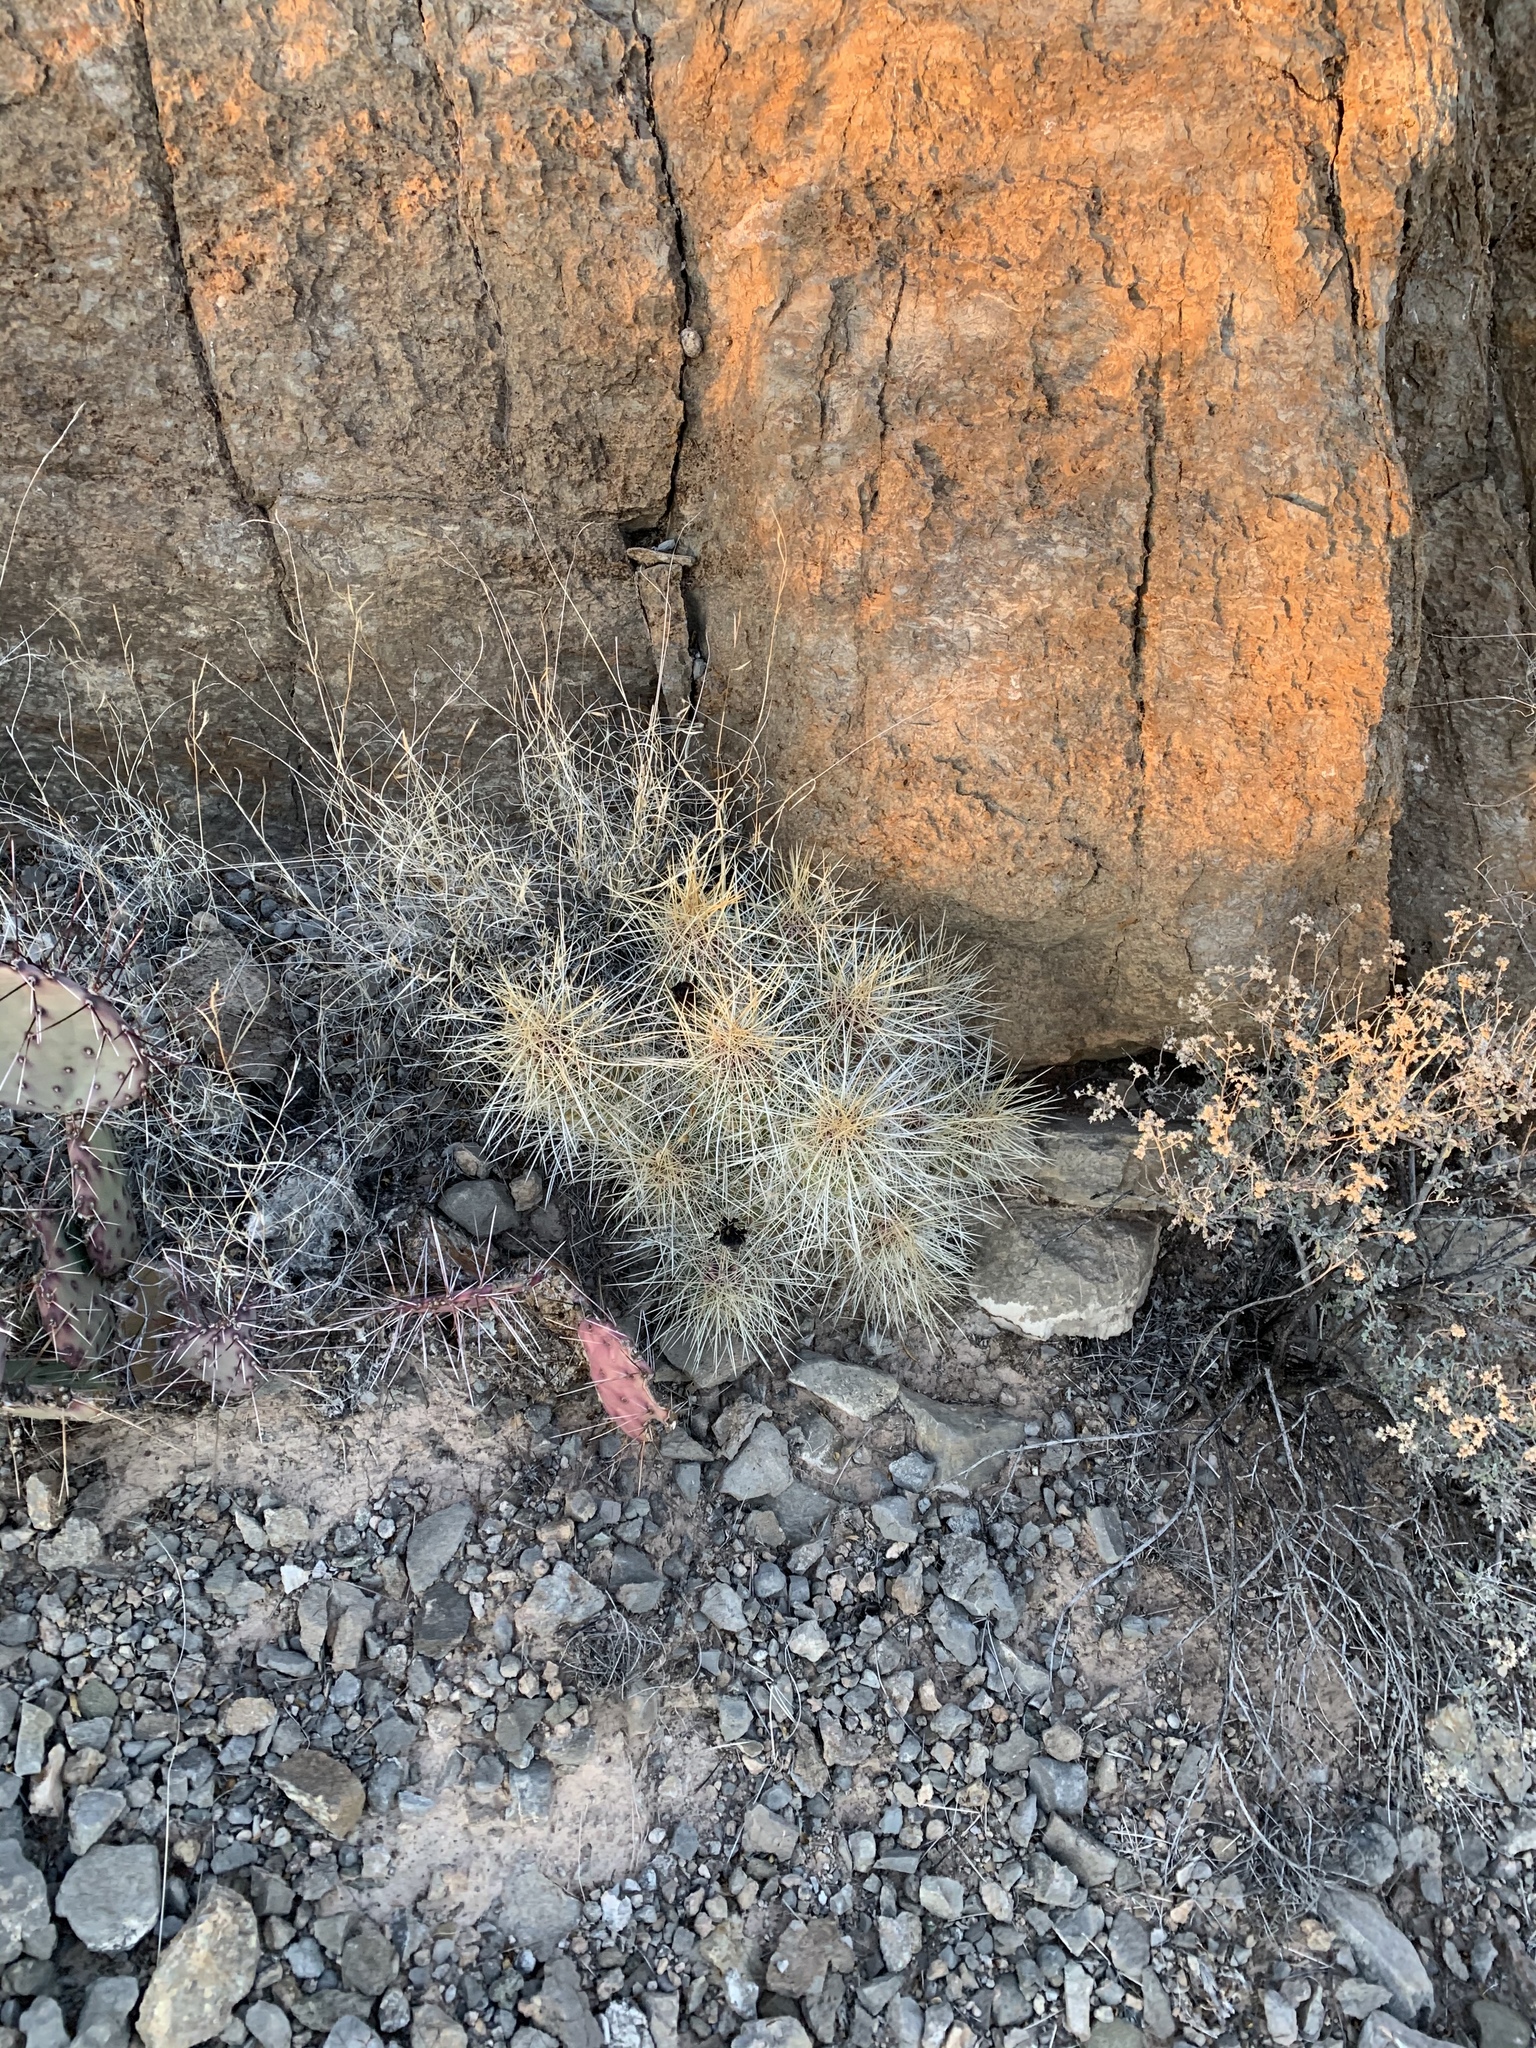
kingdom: Plantae
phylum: Tracheophyta
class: Magnoliopsida
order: Caryophyllales
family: Cactaceae
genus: Echinocereus
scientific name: Echinocereus stramineus
